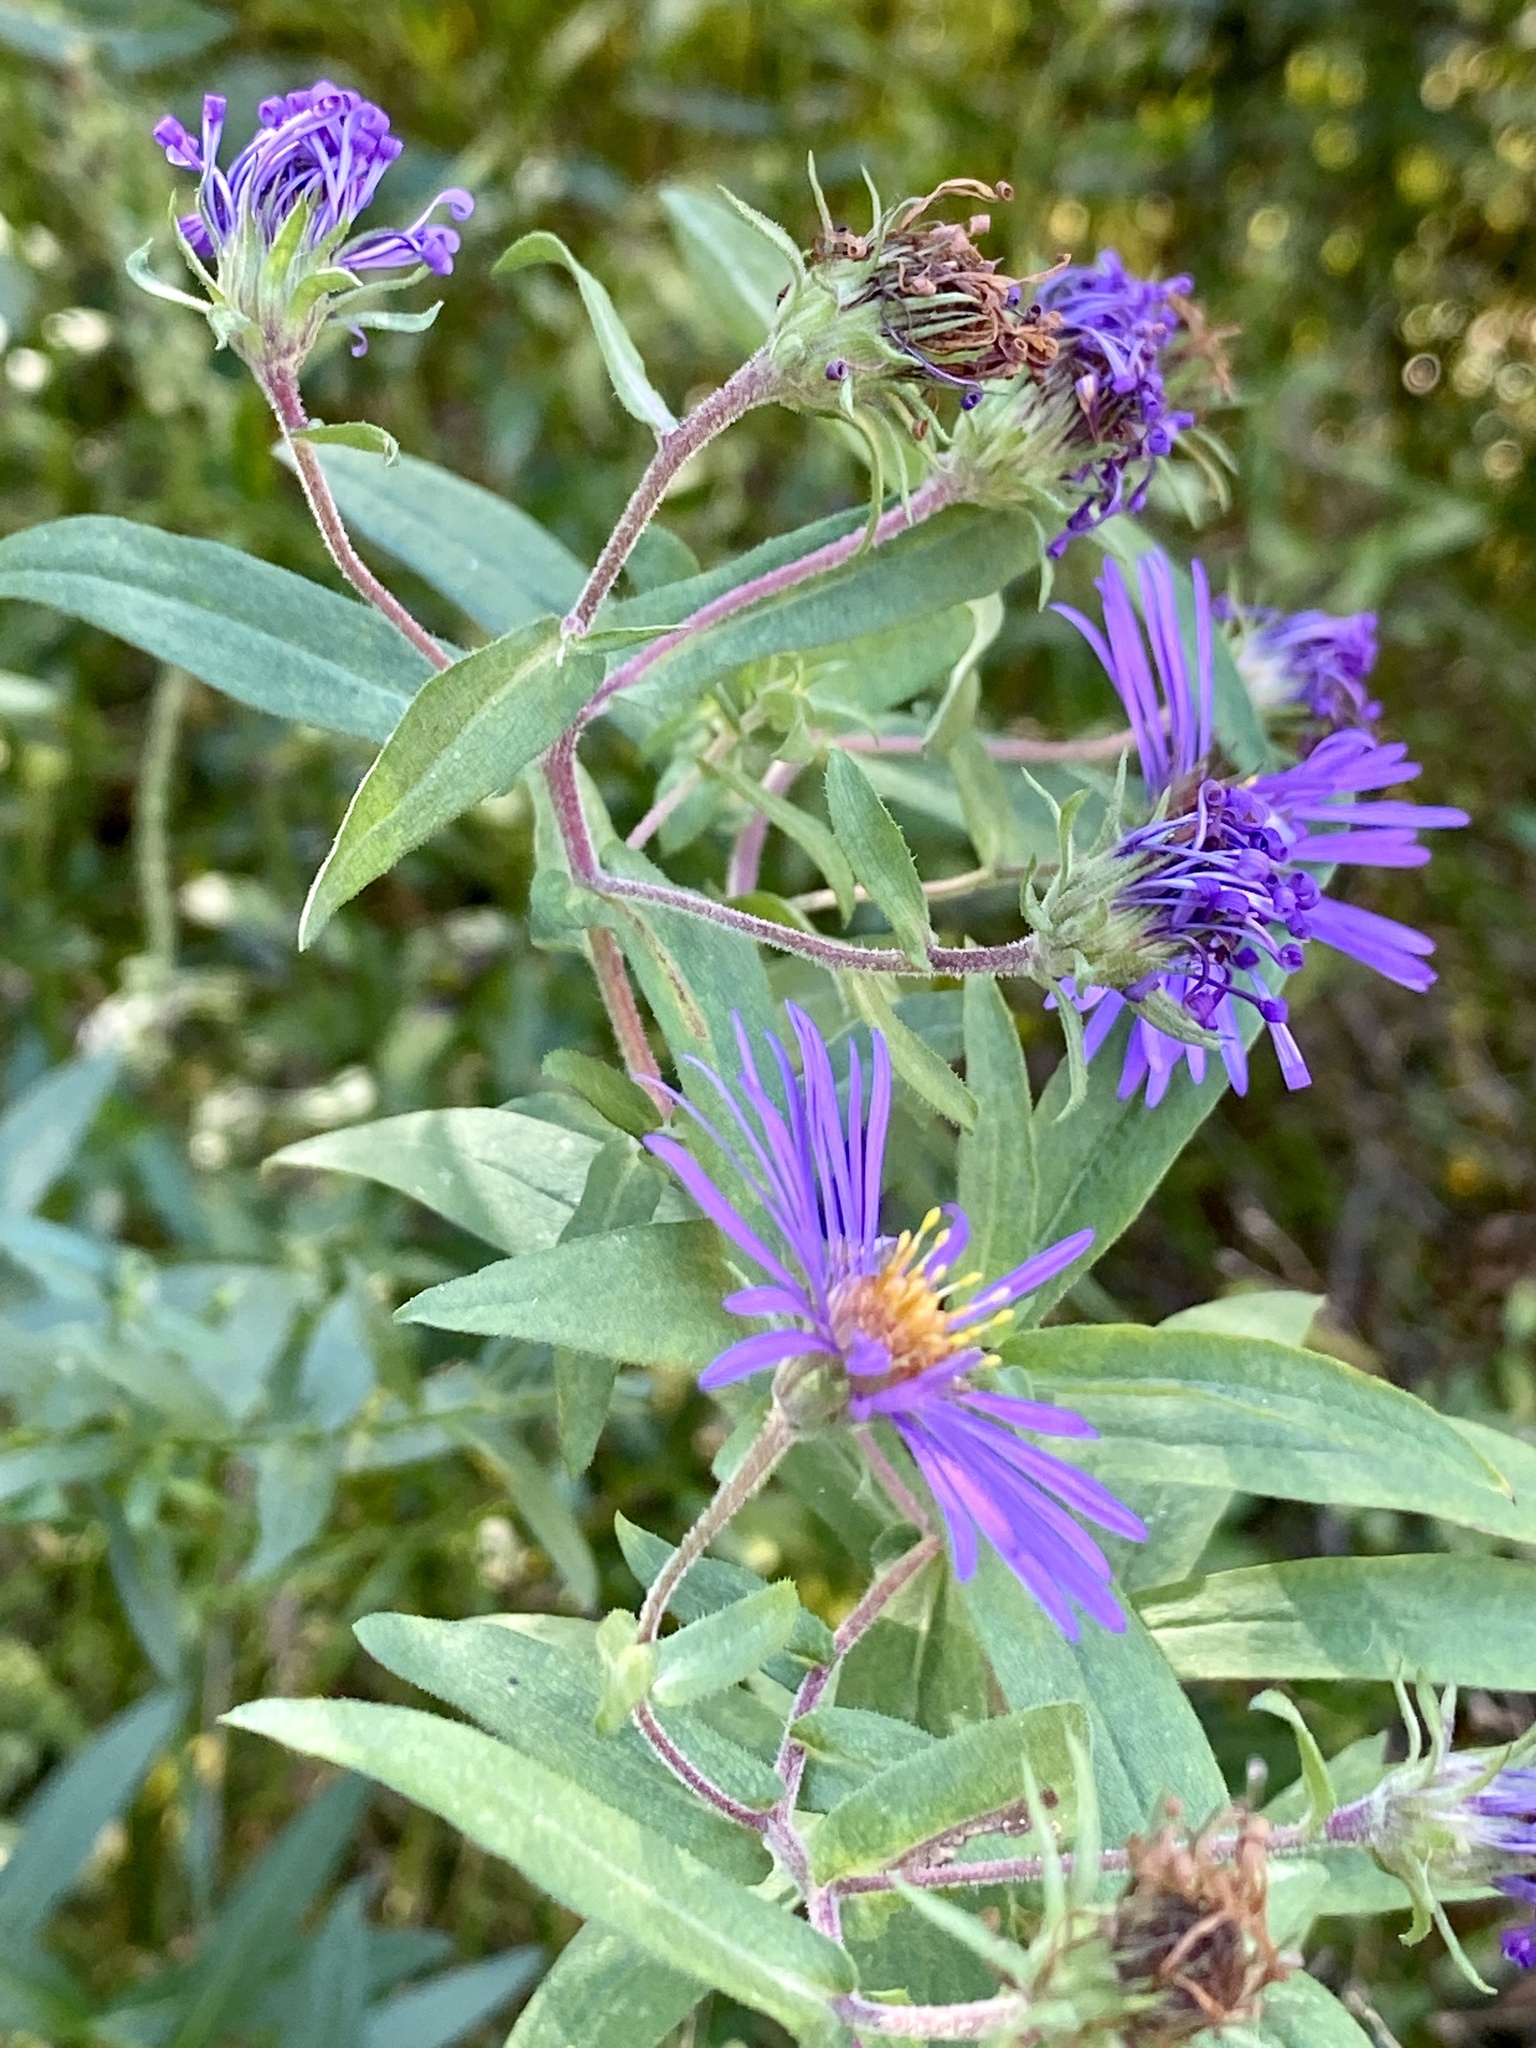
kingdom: Plantae
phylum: Tracheophyta
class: Magnoliopsida
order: Asterales
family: Asteraceae
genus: Symphyotrichum
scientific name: Symphyotrichum novae-angliae
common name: Michaelmas daisy
